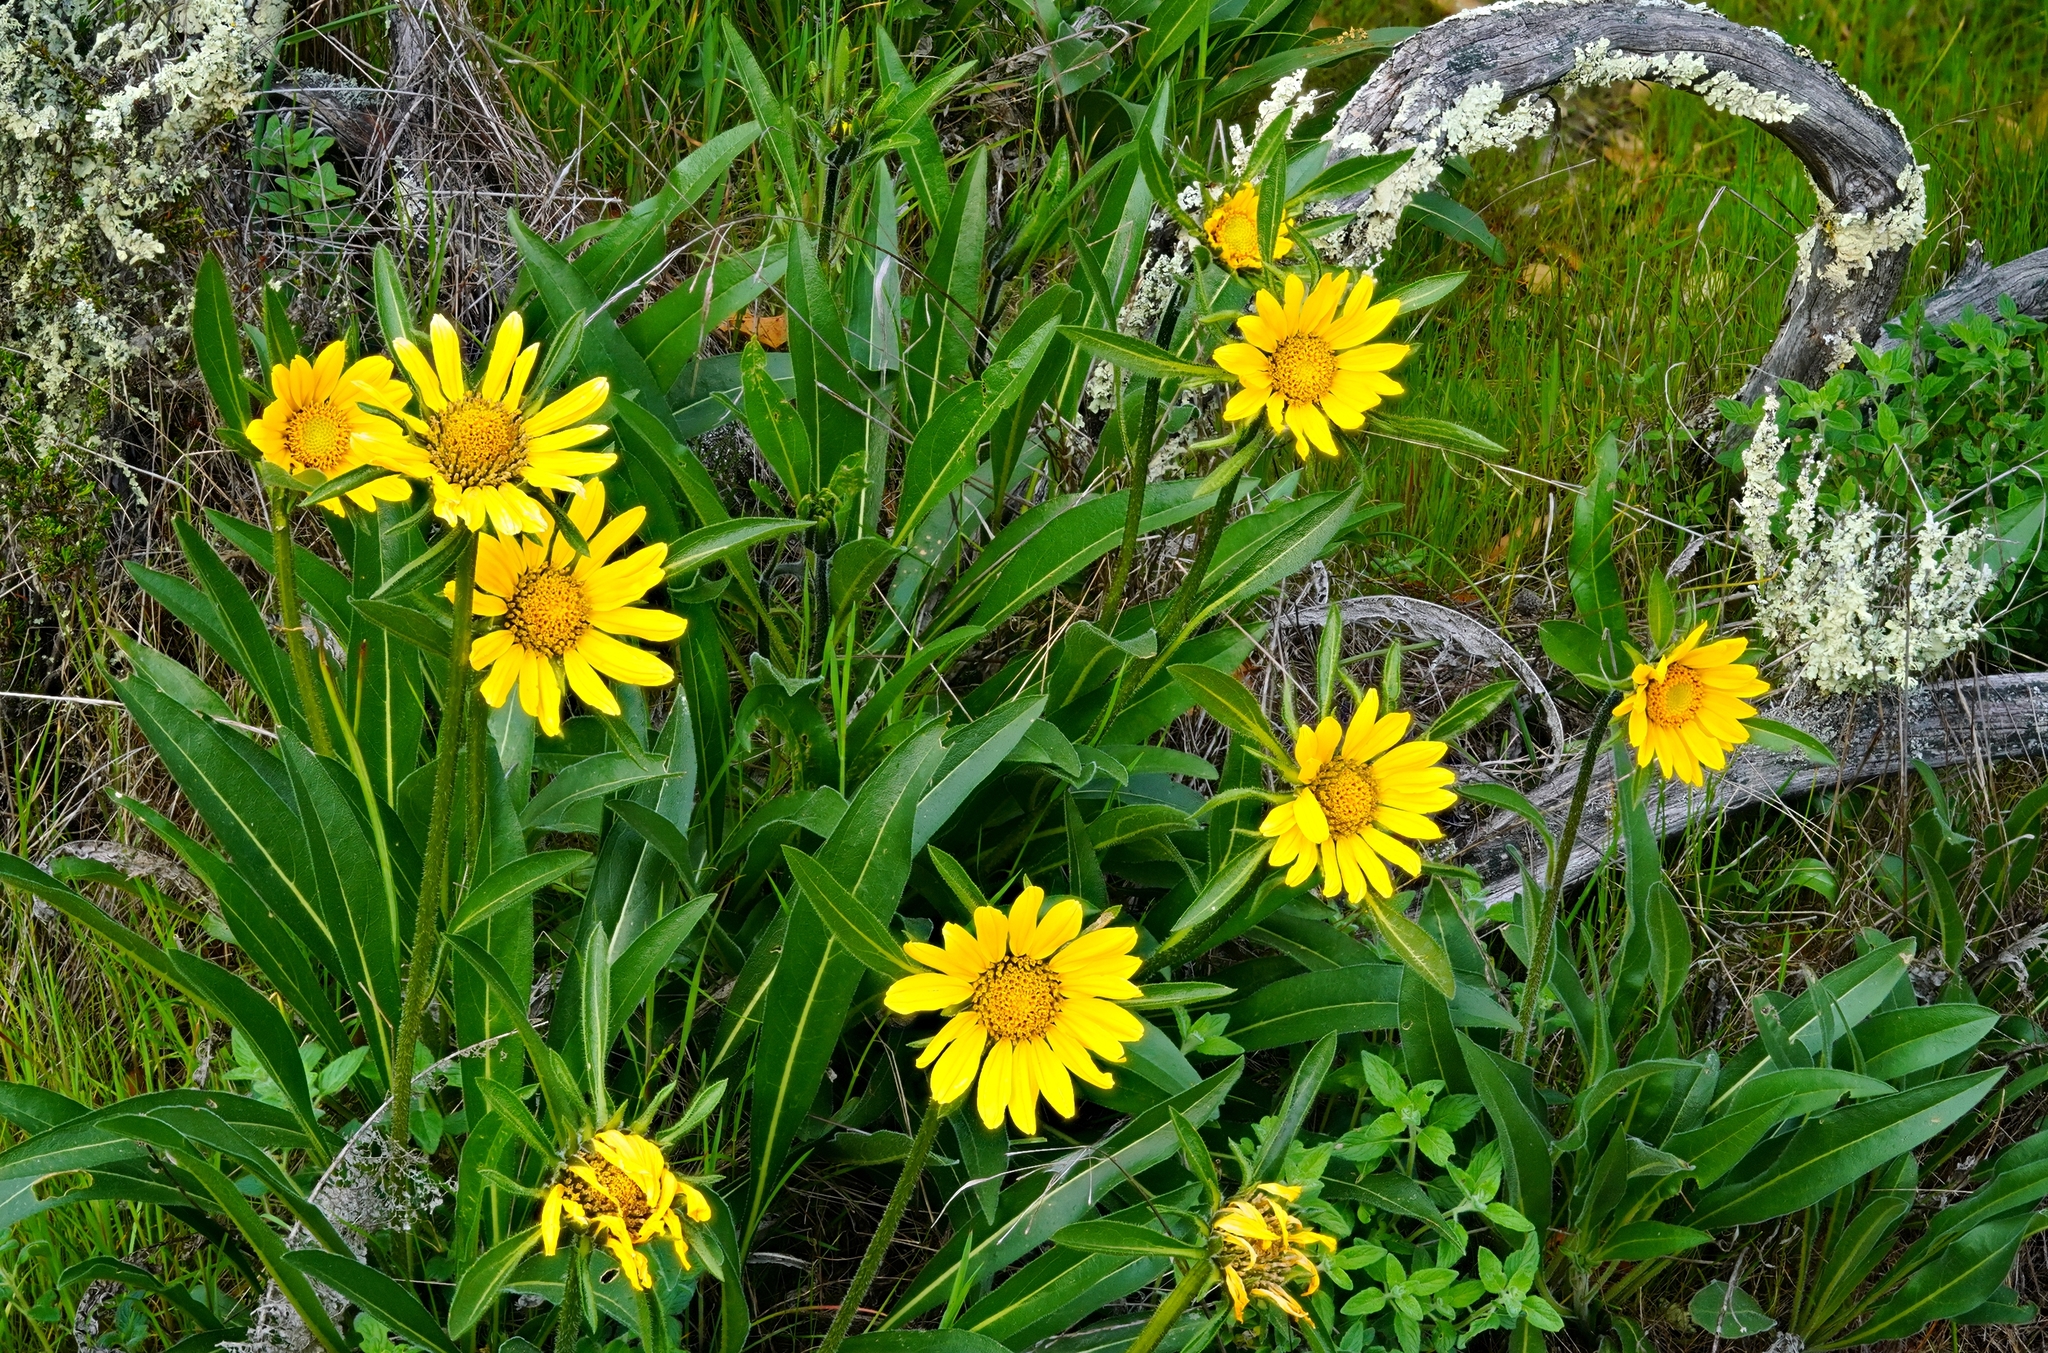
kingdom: Plantae
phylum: Tracheophyta
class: Magnoliopsida
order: Asterales
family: Asteraceae
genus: Helianthella
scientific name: Helianthella castanea
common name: Diablo helianthella
